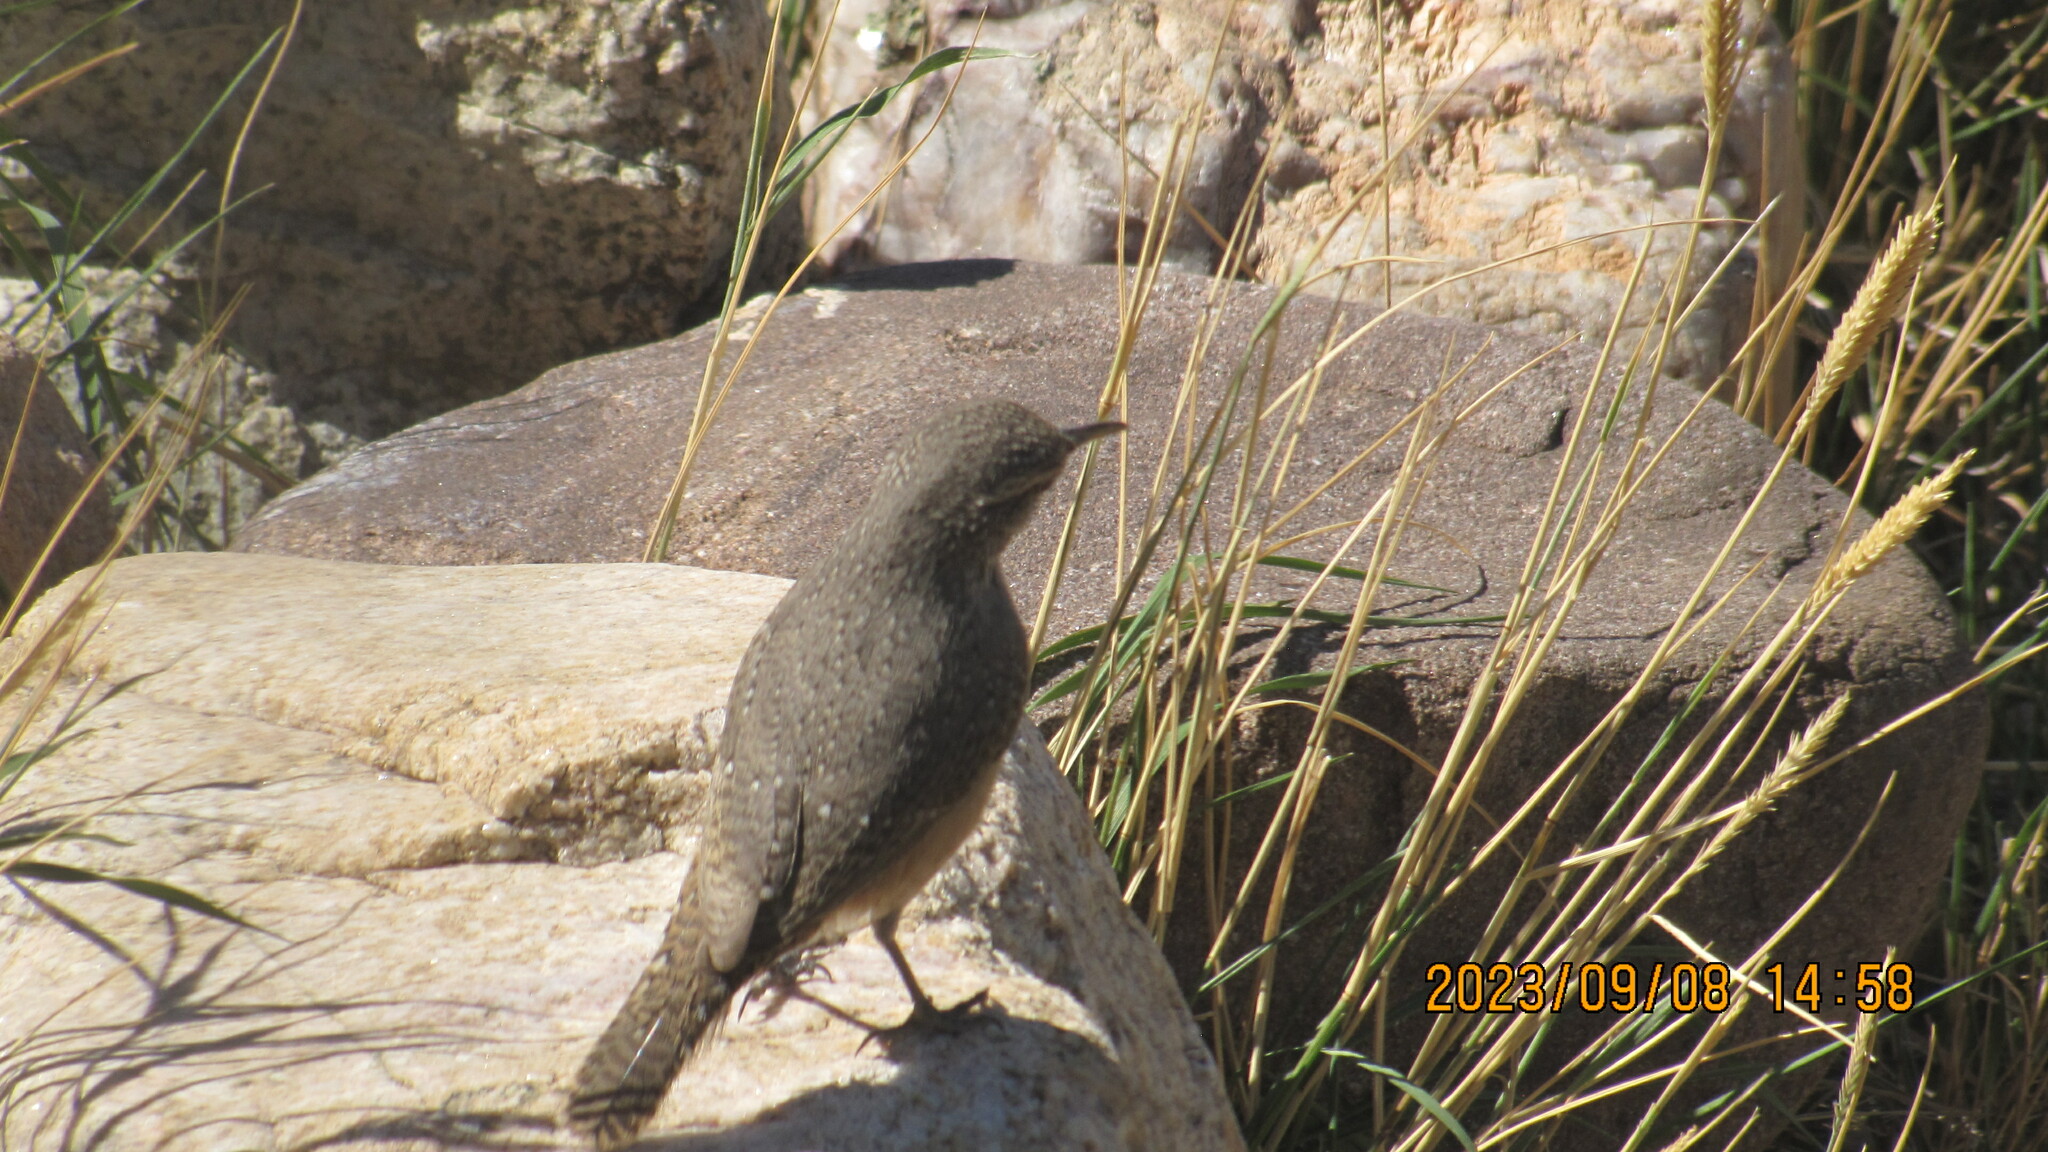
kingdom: Animalia
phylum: Chordata
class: Aves
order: Passeriformes
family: Troglodytidae
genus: Salpinctes
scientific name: Salpinctes obsoletus
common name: Rock wren
